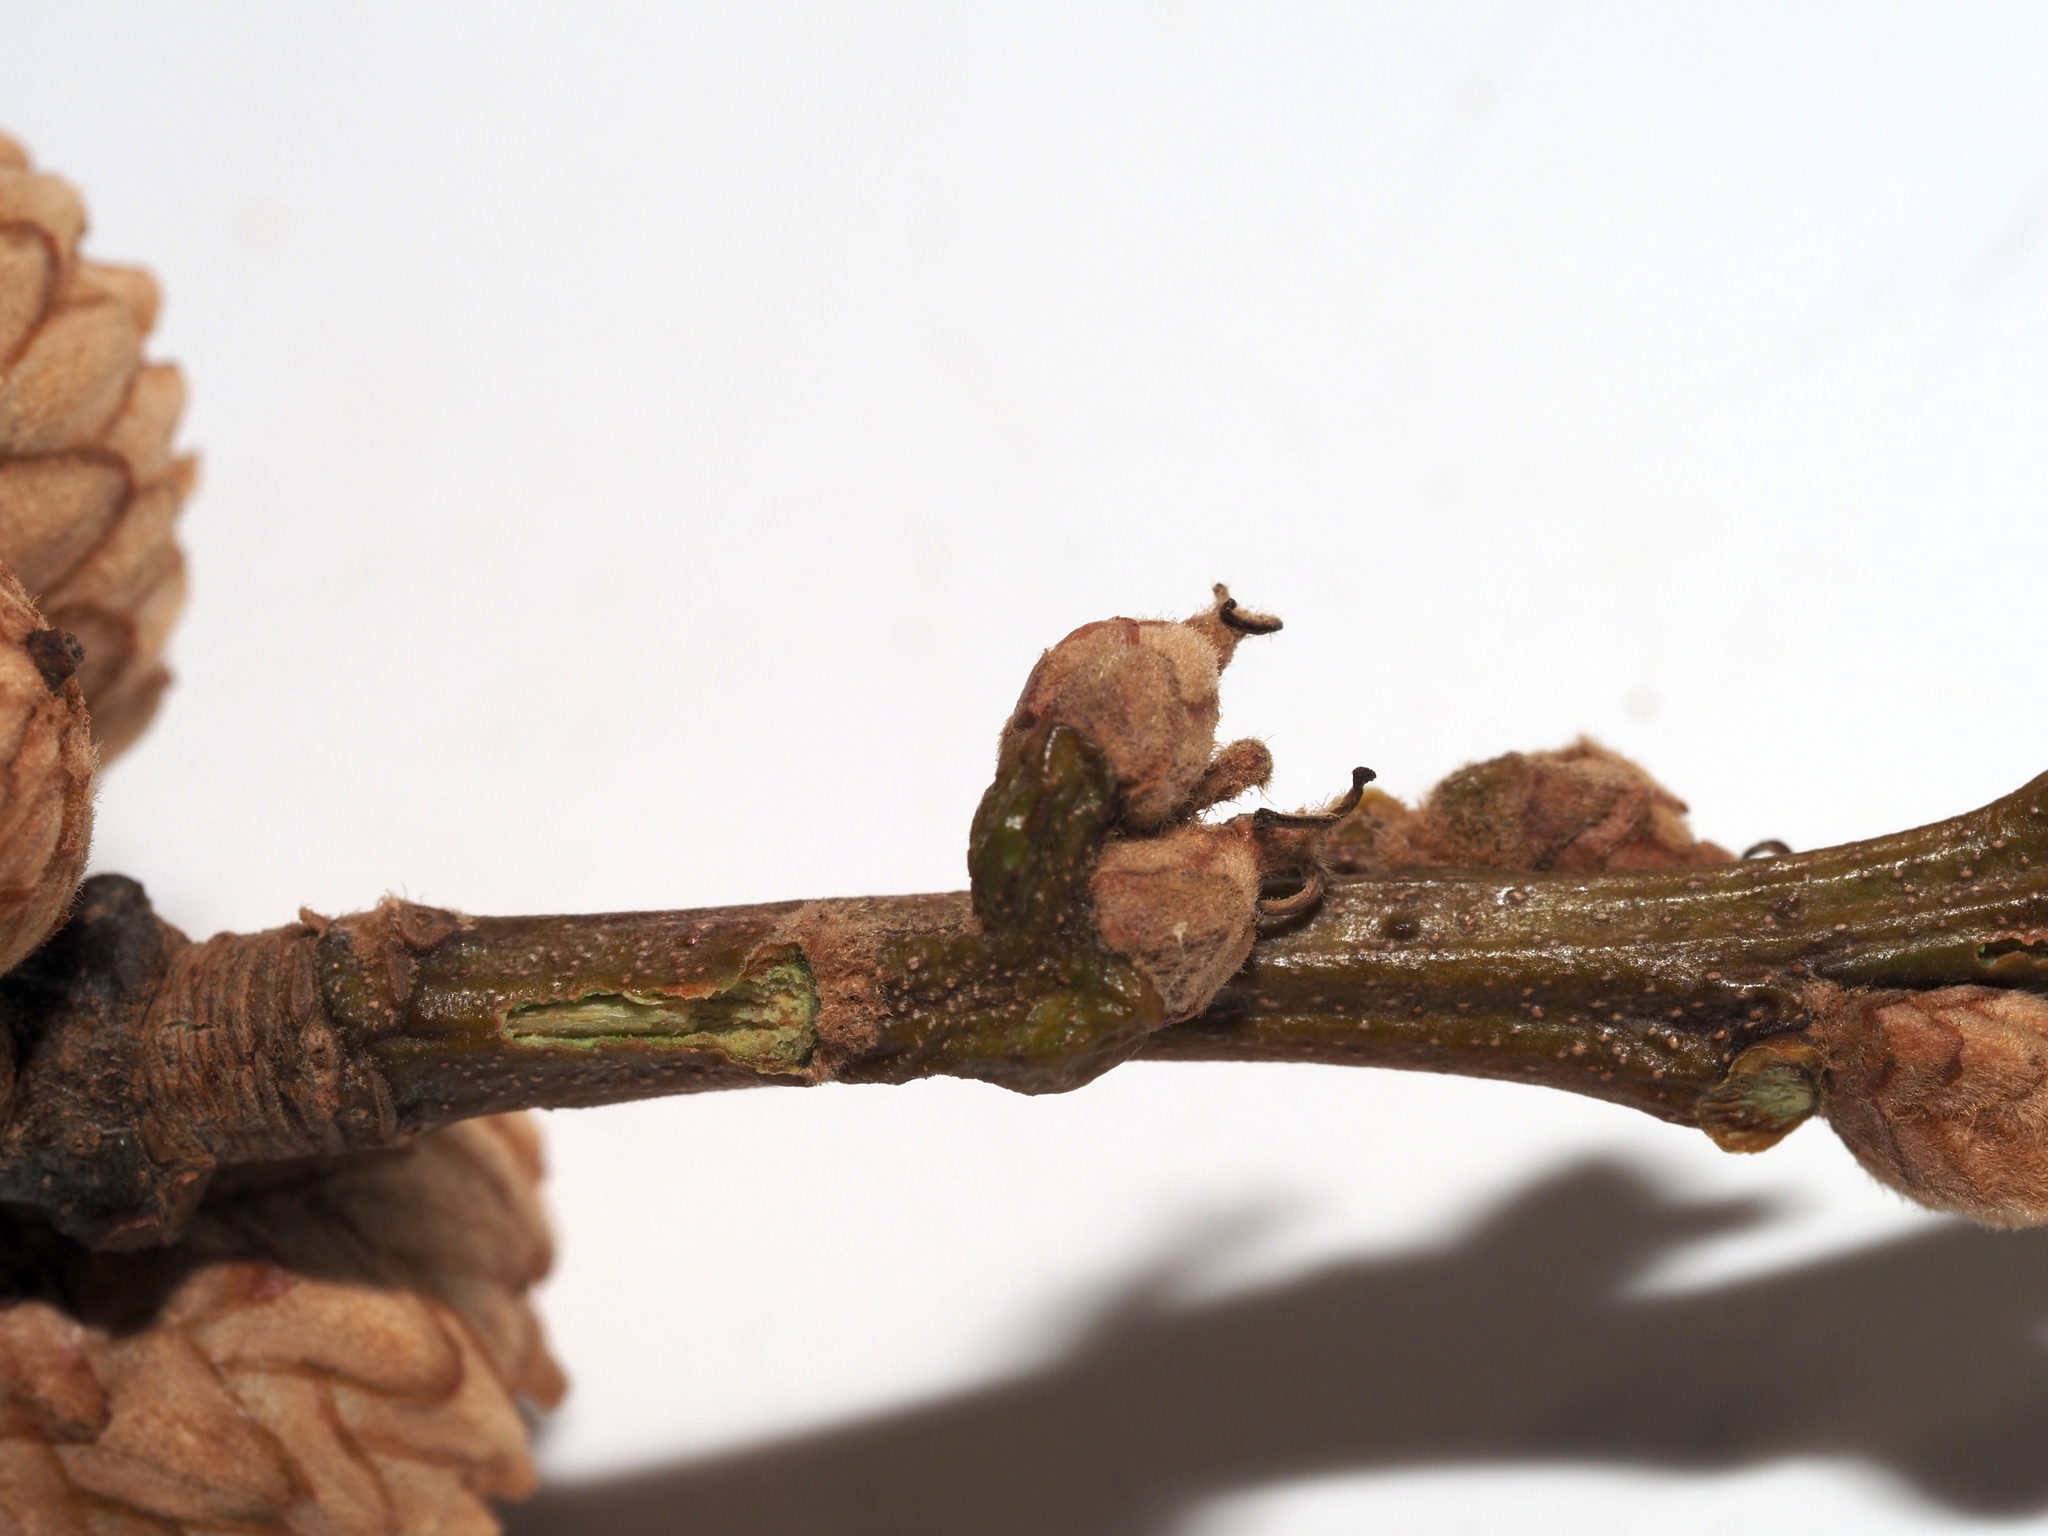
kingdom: Plantae
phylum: Tracheophyta
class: Magnoliopsida
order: Fagales
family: Fagaceae
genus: Quercus
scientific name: Quercus velutina
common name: Black oak
